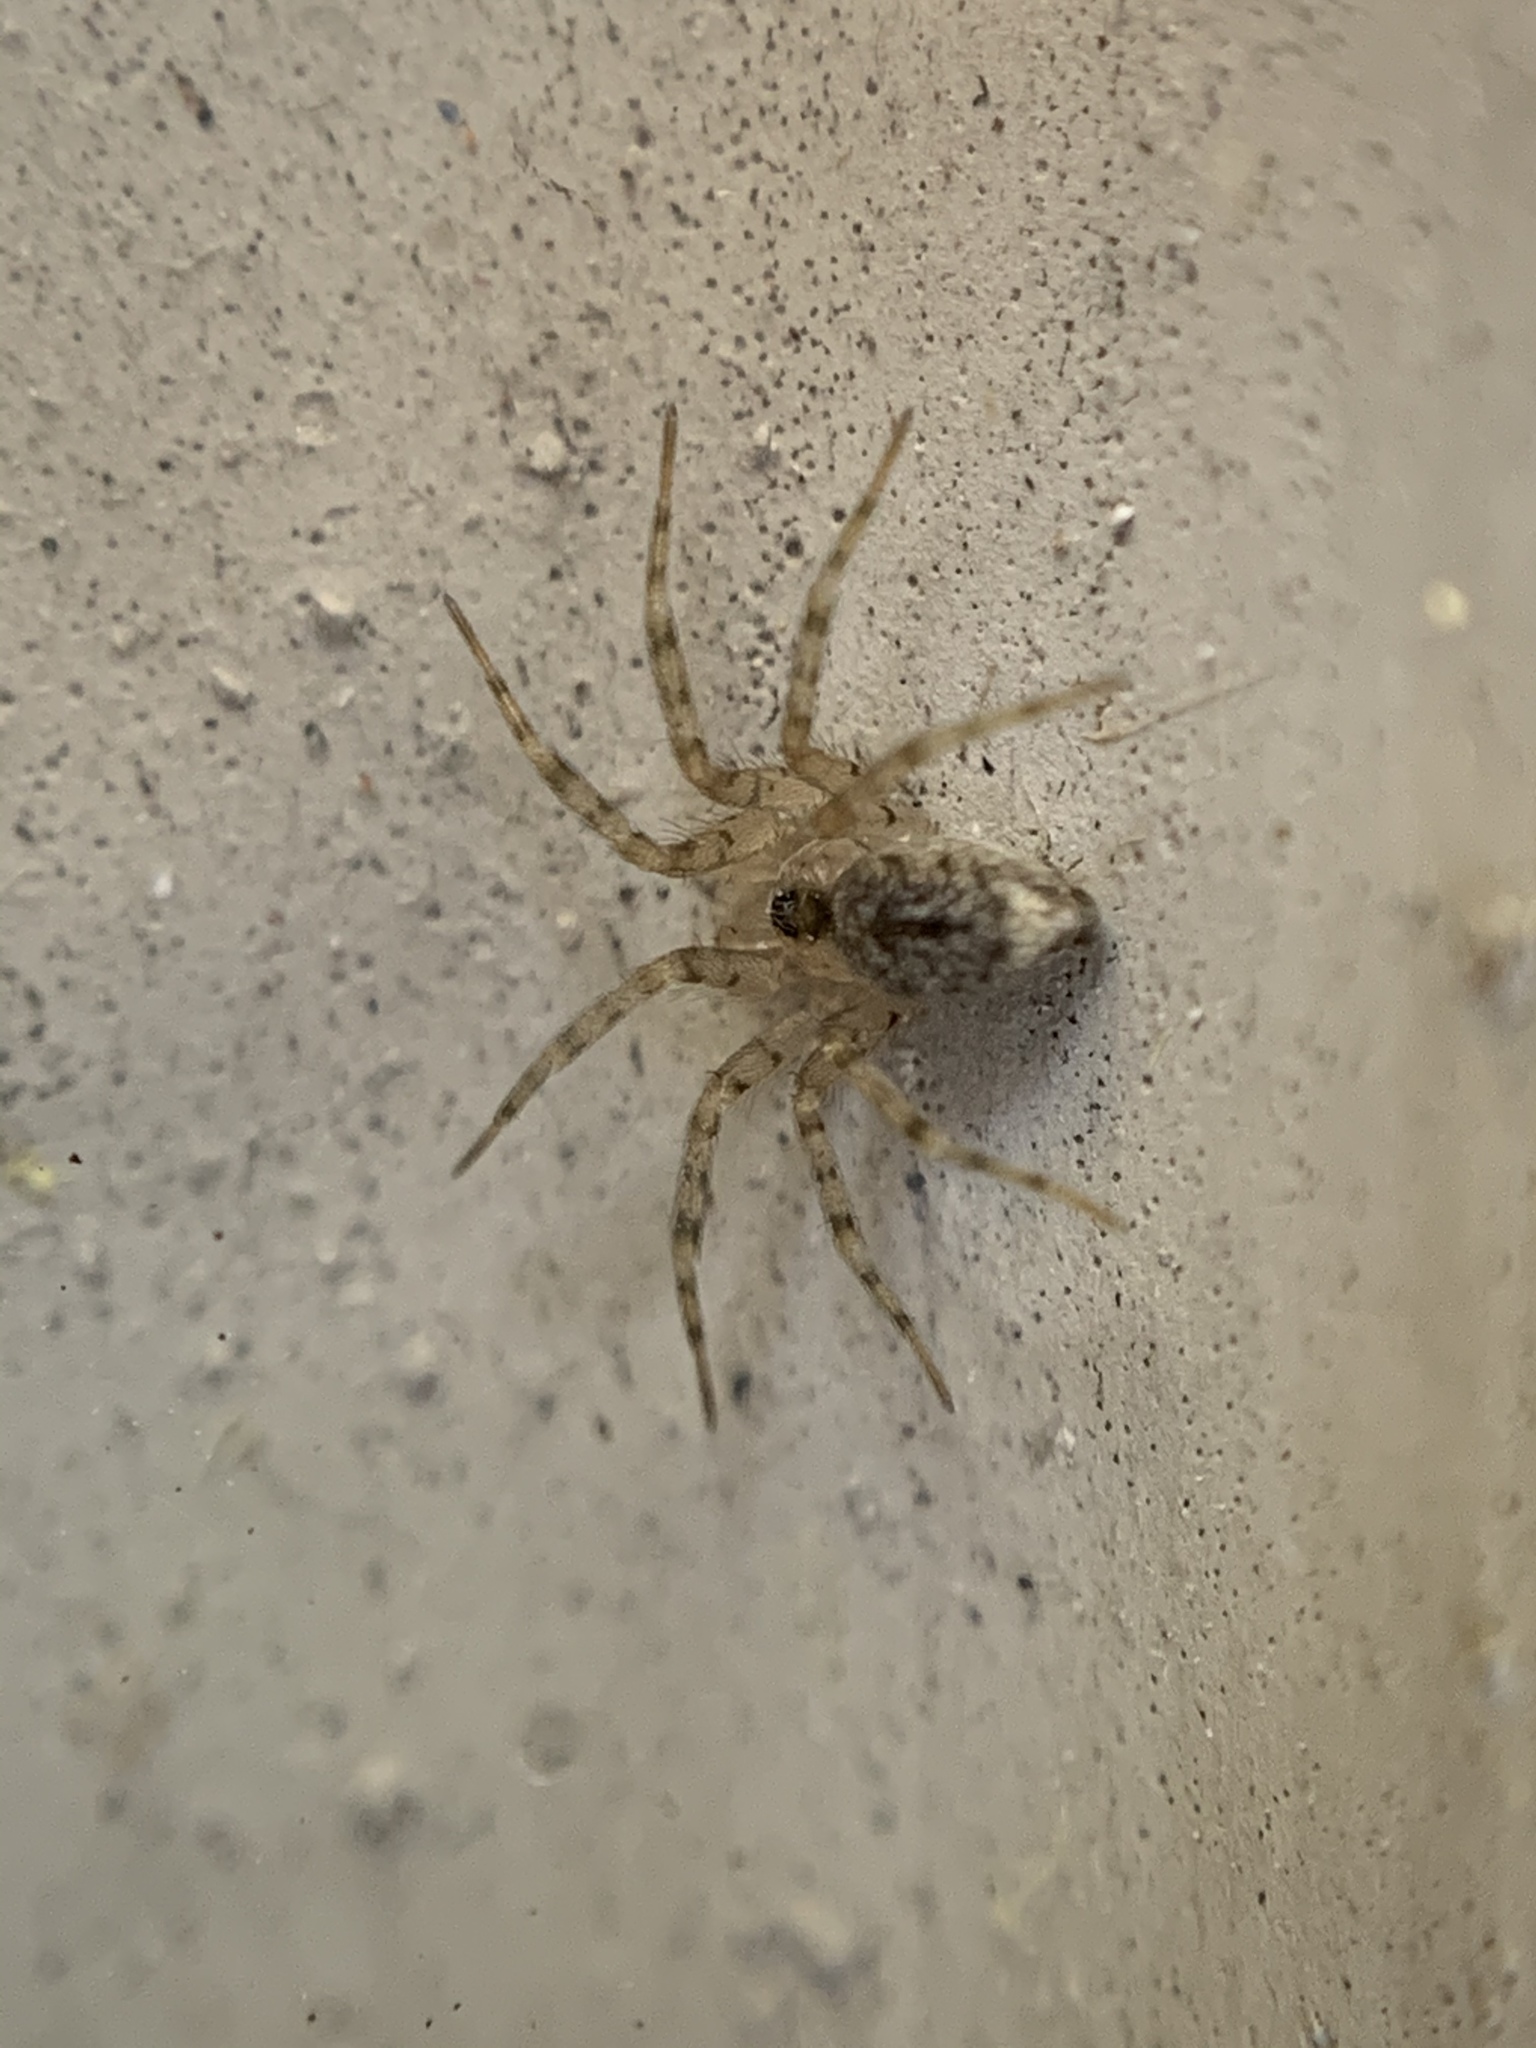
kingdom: Animalia
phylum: Arthropoda
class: Arachnida
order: Araneae
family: Oecobiidae
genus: Oecobius
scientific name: Oecobius navus
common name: Flatmesh weaver
